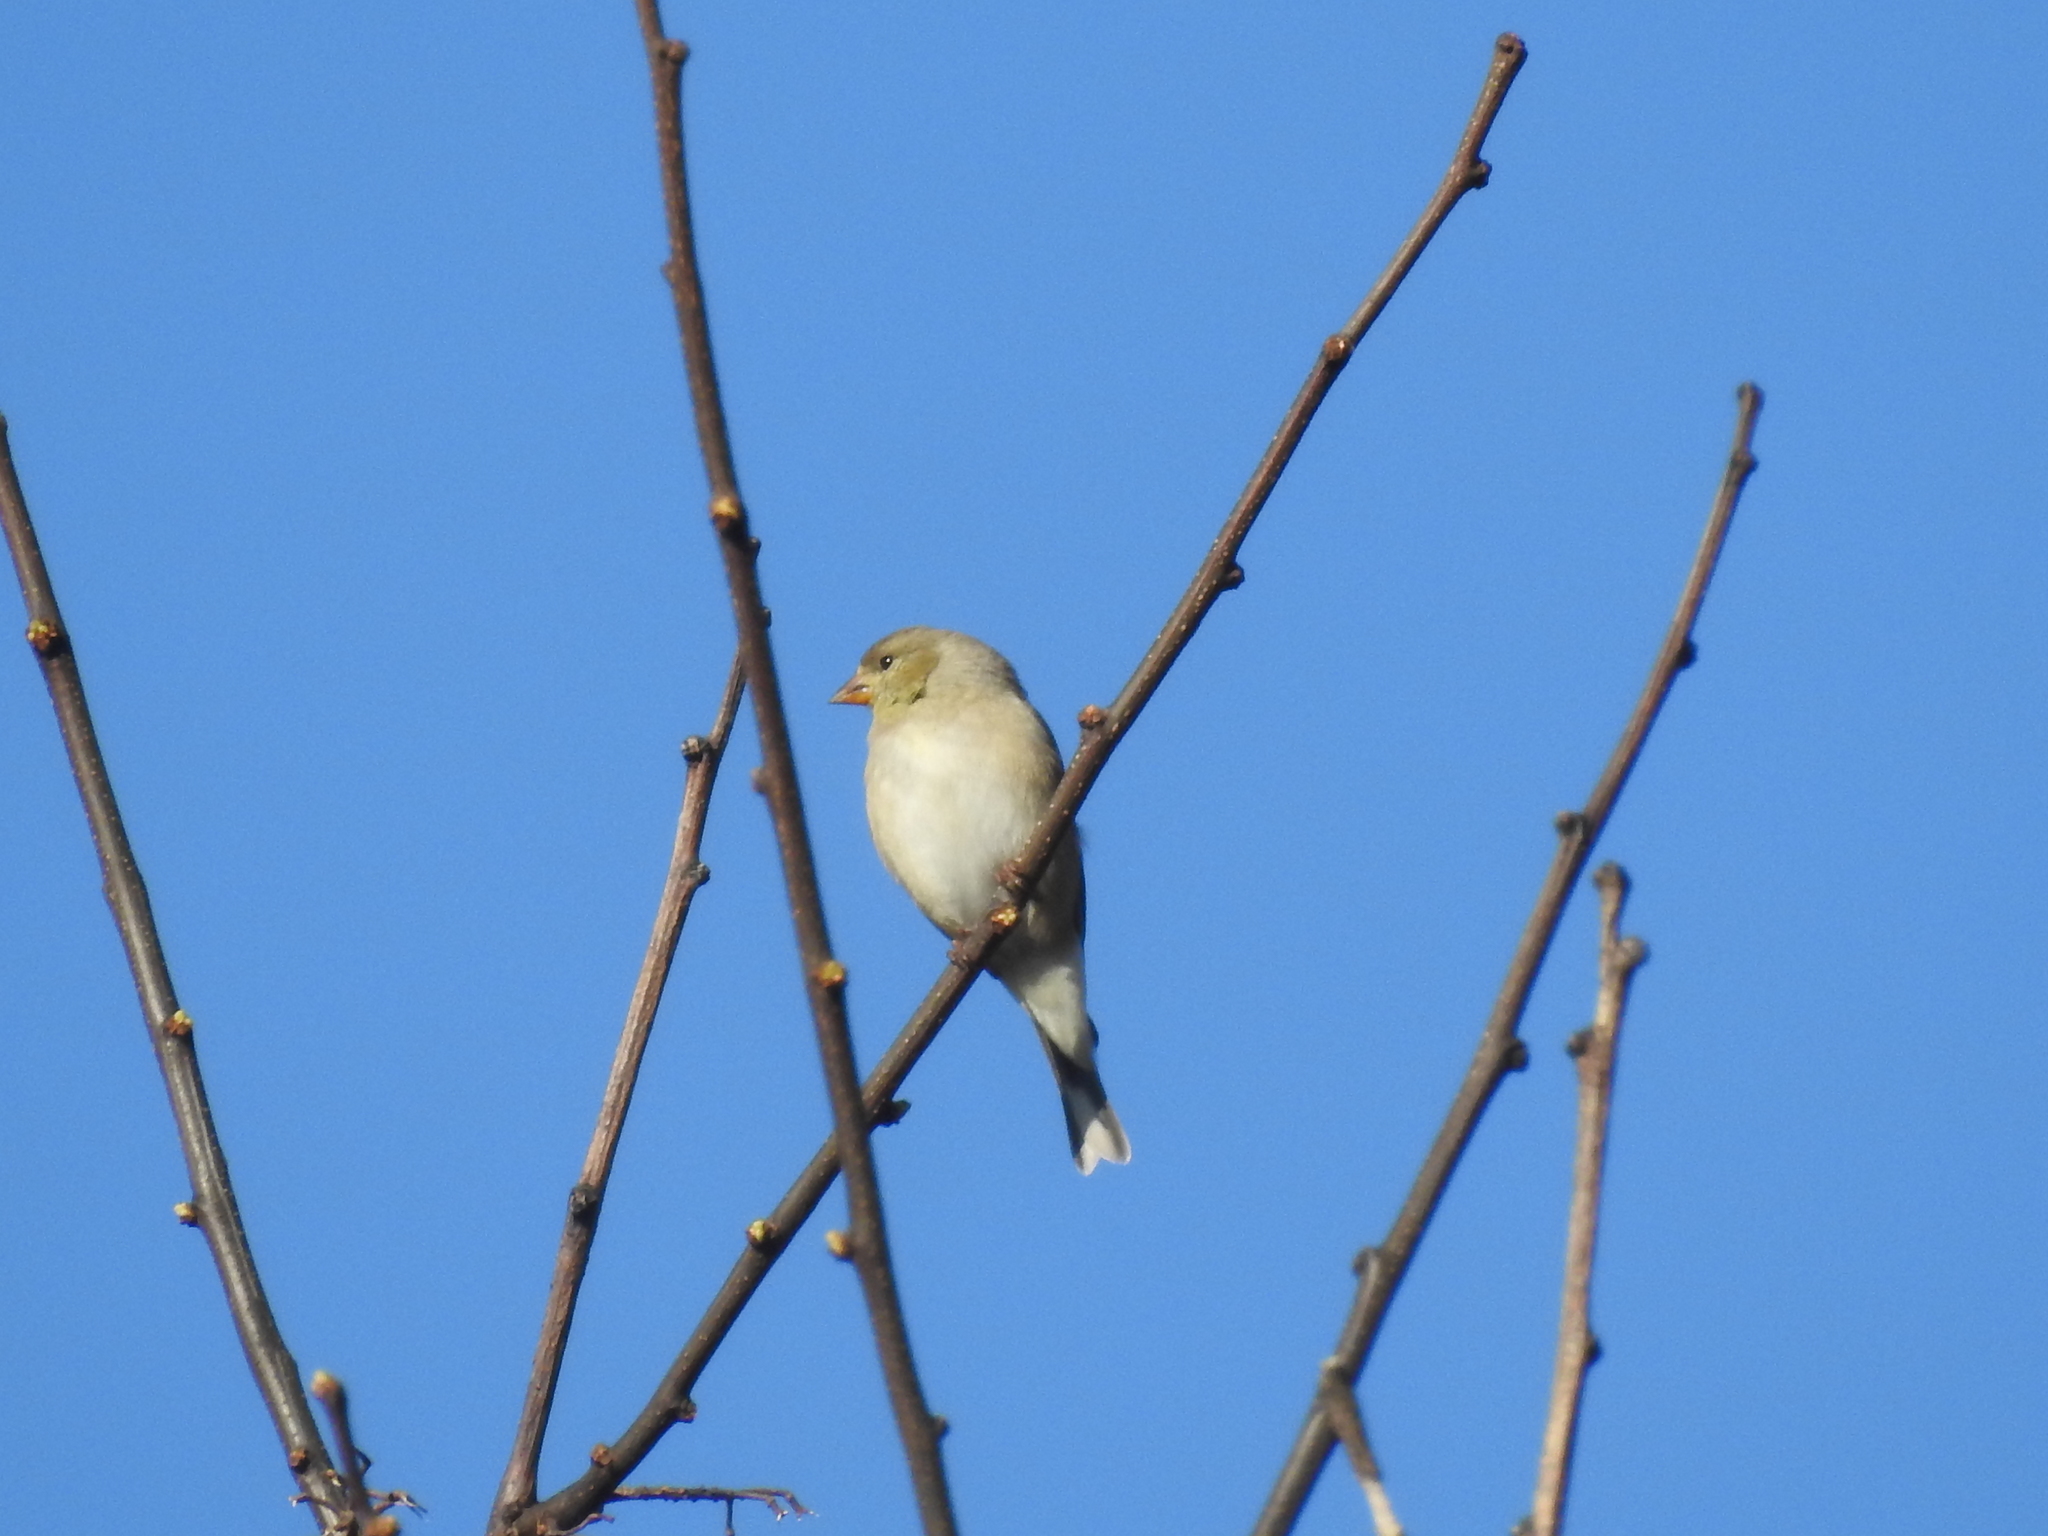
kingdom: Animalia
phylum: Chordata
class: Aves
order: Passeriformes
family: Fringillidae
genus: Spinus
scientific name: Spinus tristis
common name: American goldfinch
